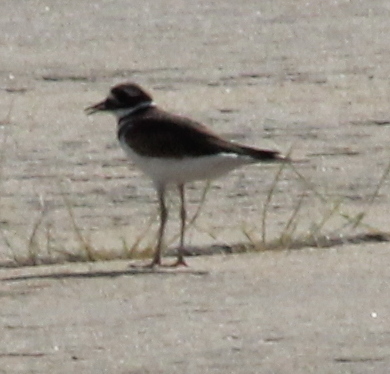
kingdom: Animalia
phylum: Chordata
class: Aves
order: Charadriiformes
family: Charadriidae
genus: Charadrius
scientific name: Charadrius vociferus
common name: Killdeer
